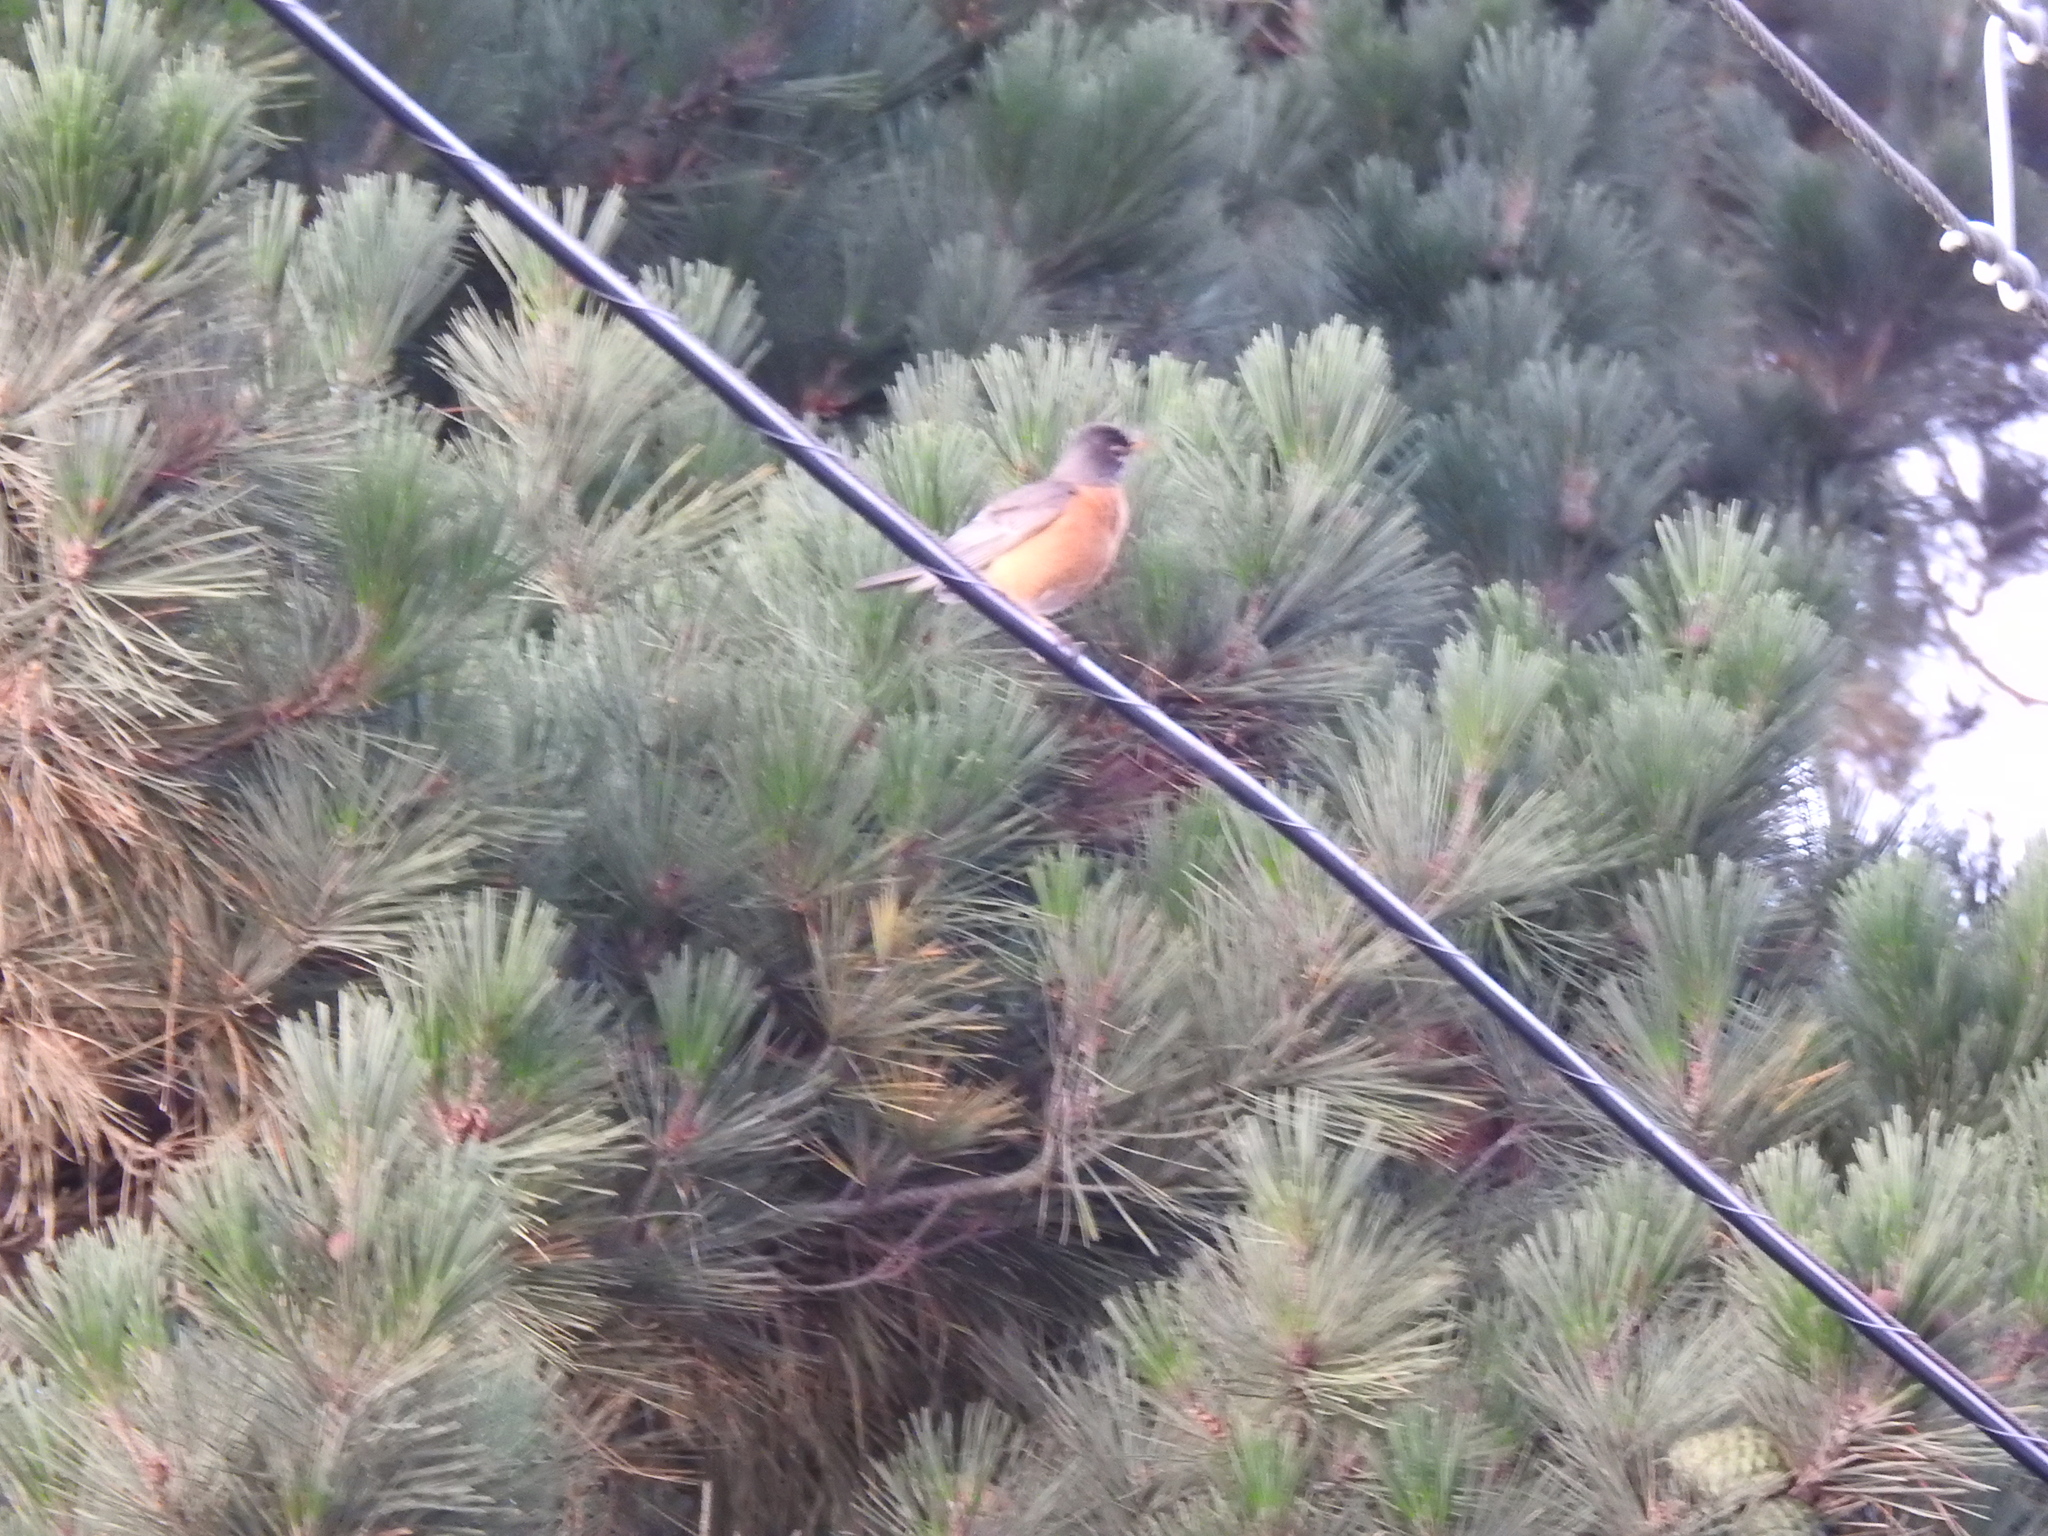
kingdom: Animalia
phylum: Chordata
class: Aves
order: Passeriformes
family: Turdidae
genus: Turdus
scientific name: Turdus migratorius
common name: American robin
